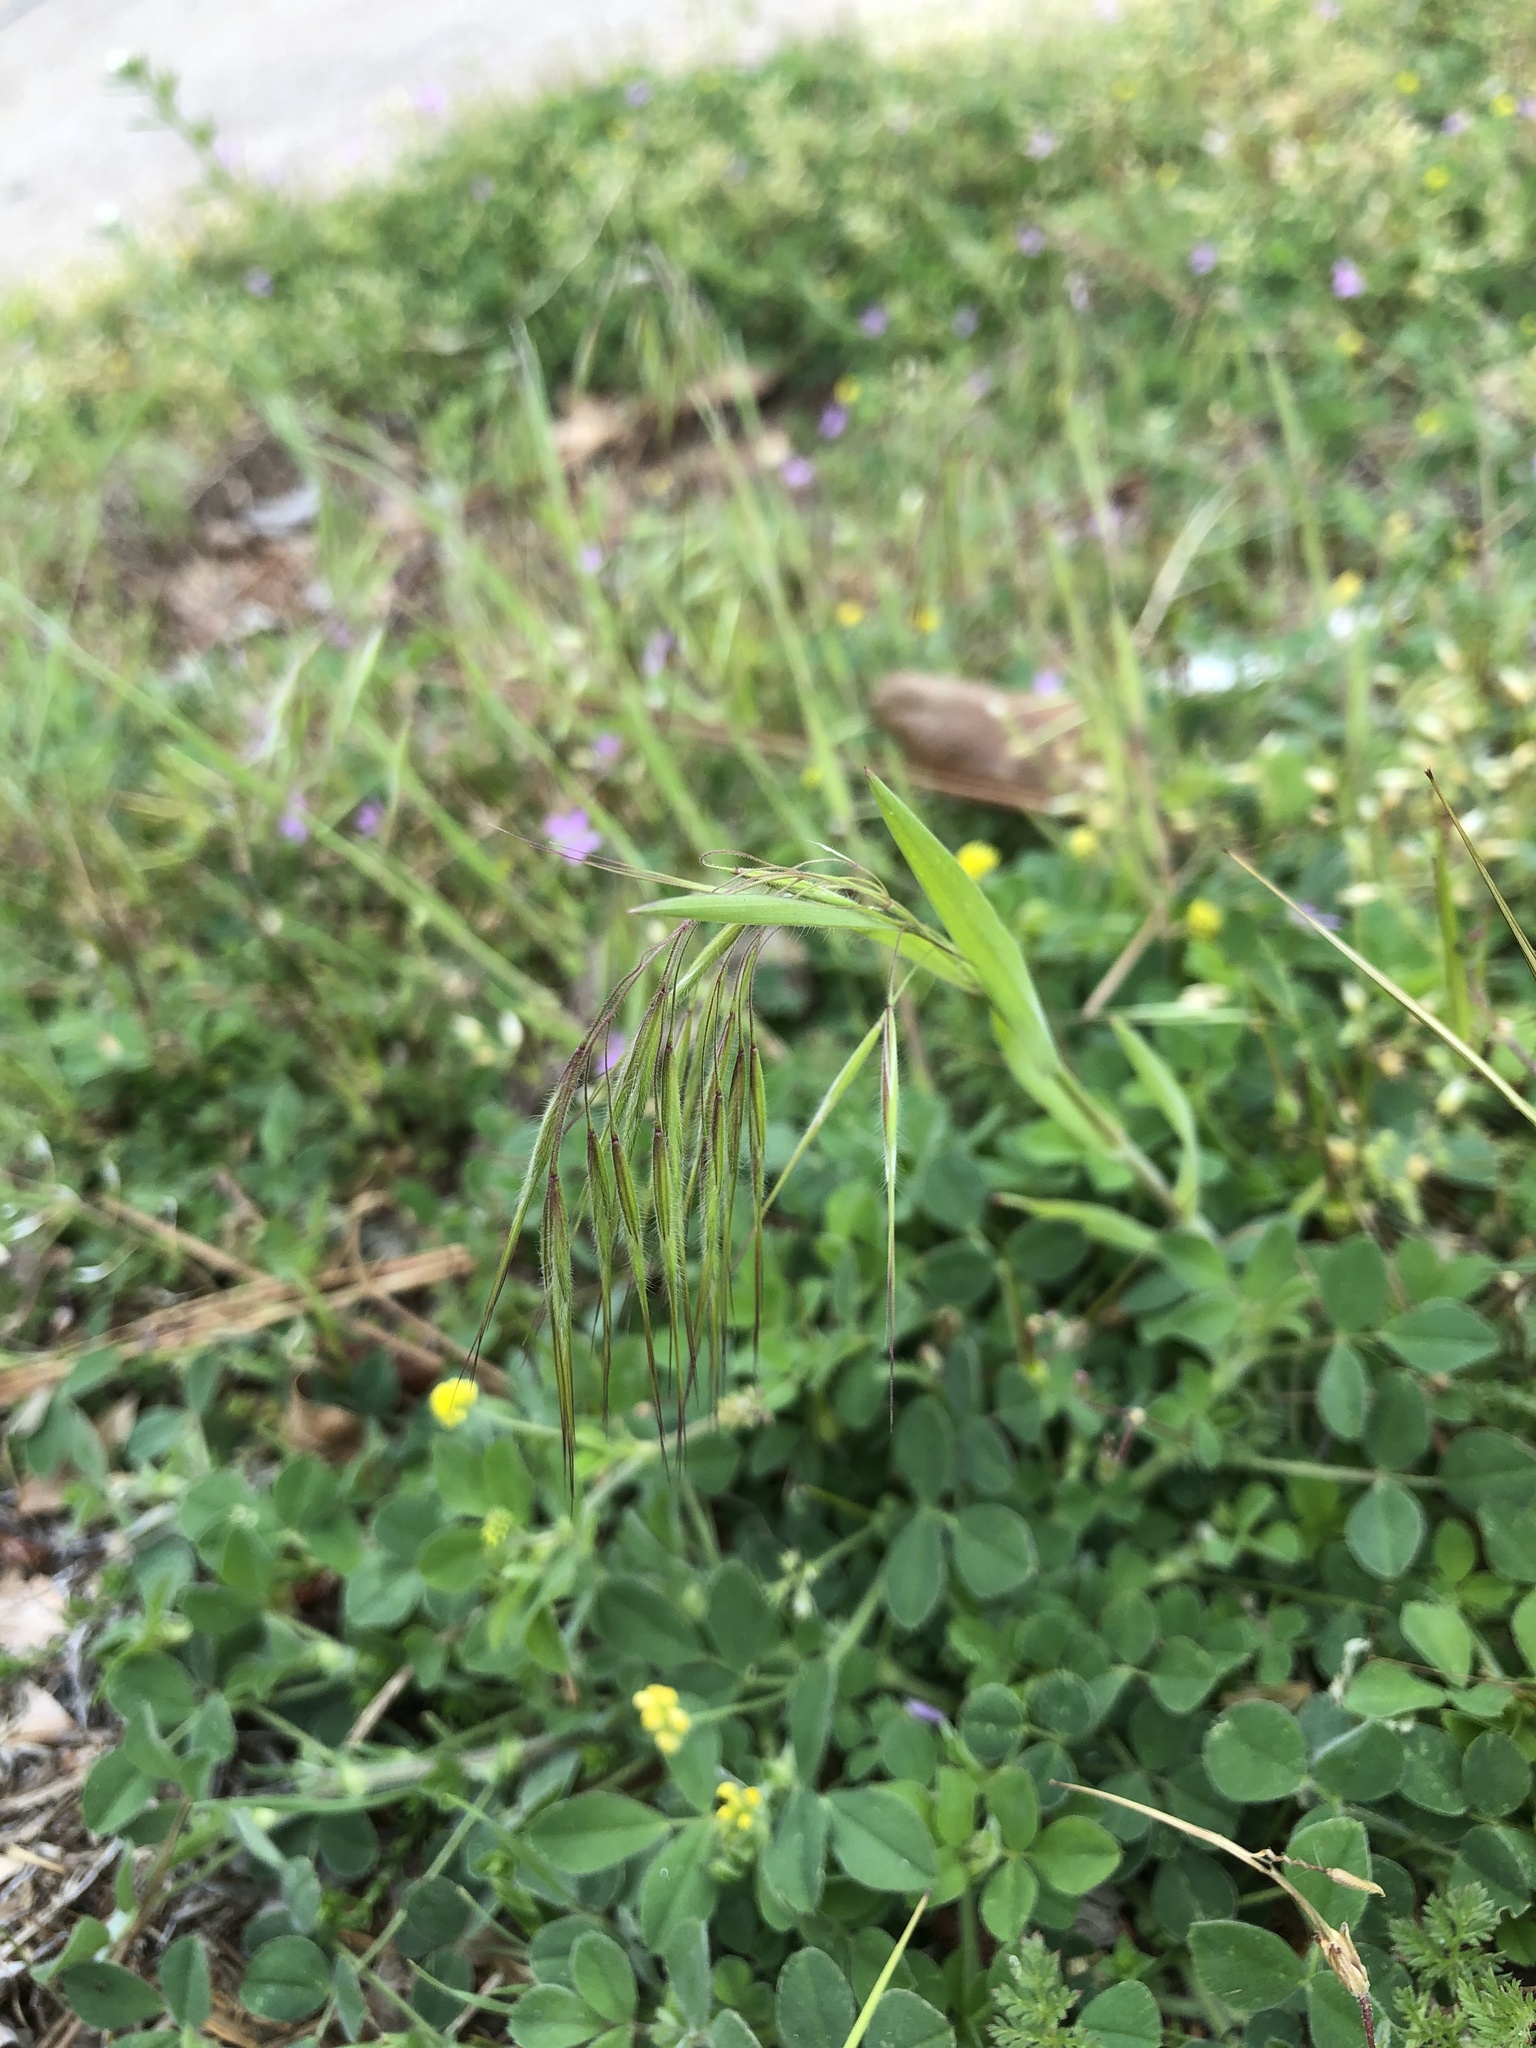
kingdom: Plantae
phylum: Tracheophyta
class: Liliopsida
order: Poales
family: Poaceae
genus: Bromus
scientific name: Bromus tectorum
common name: Cheatgrass
